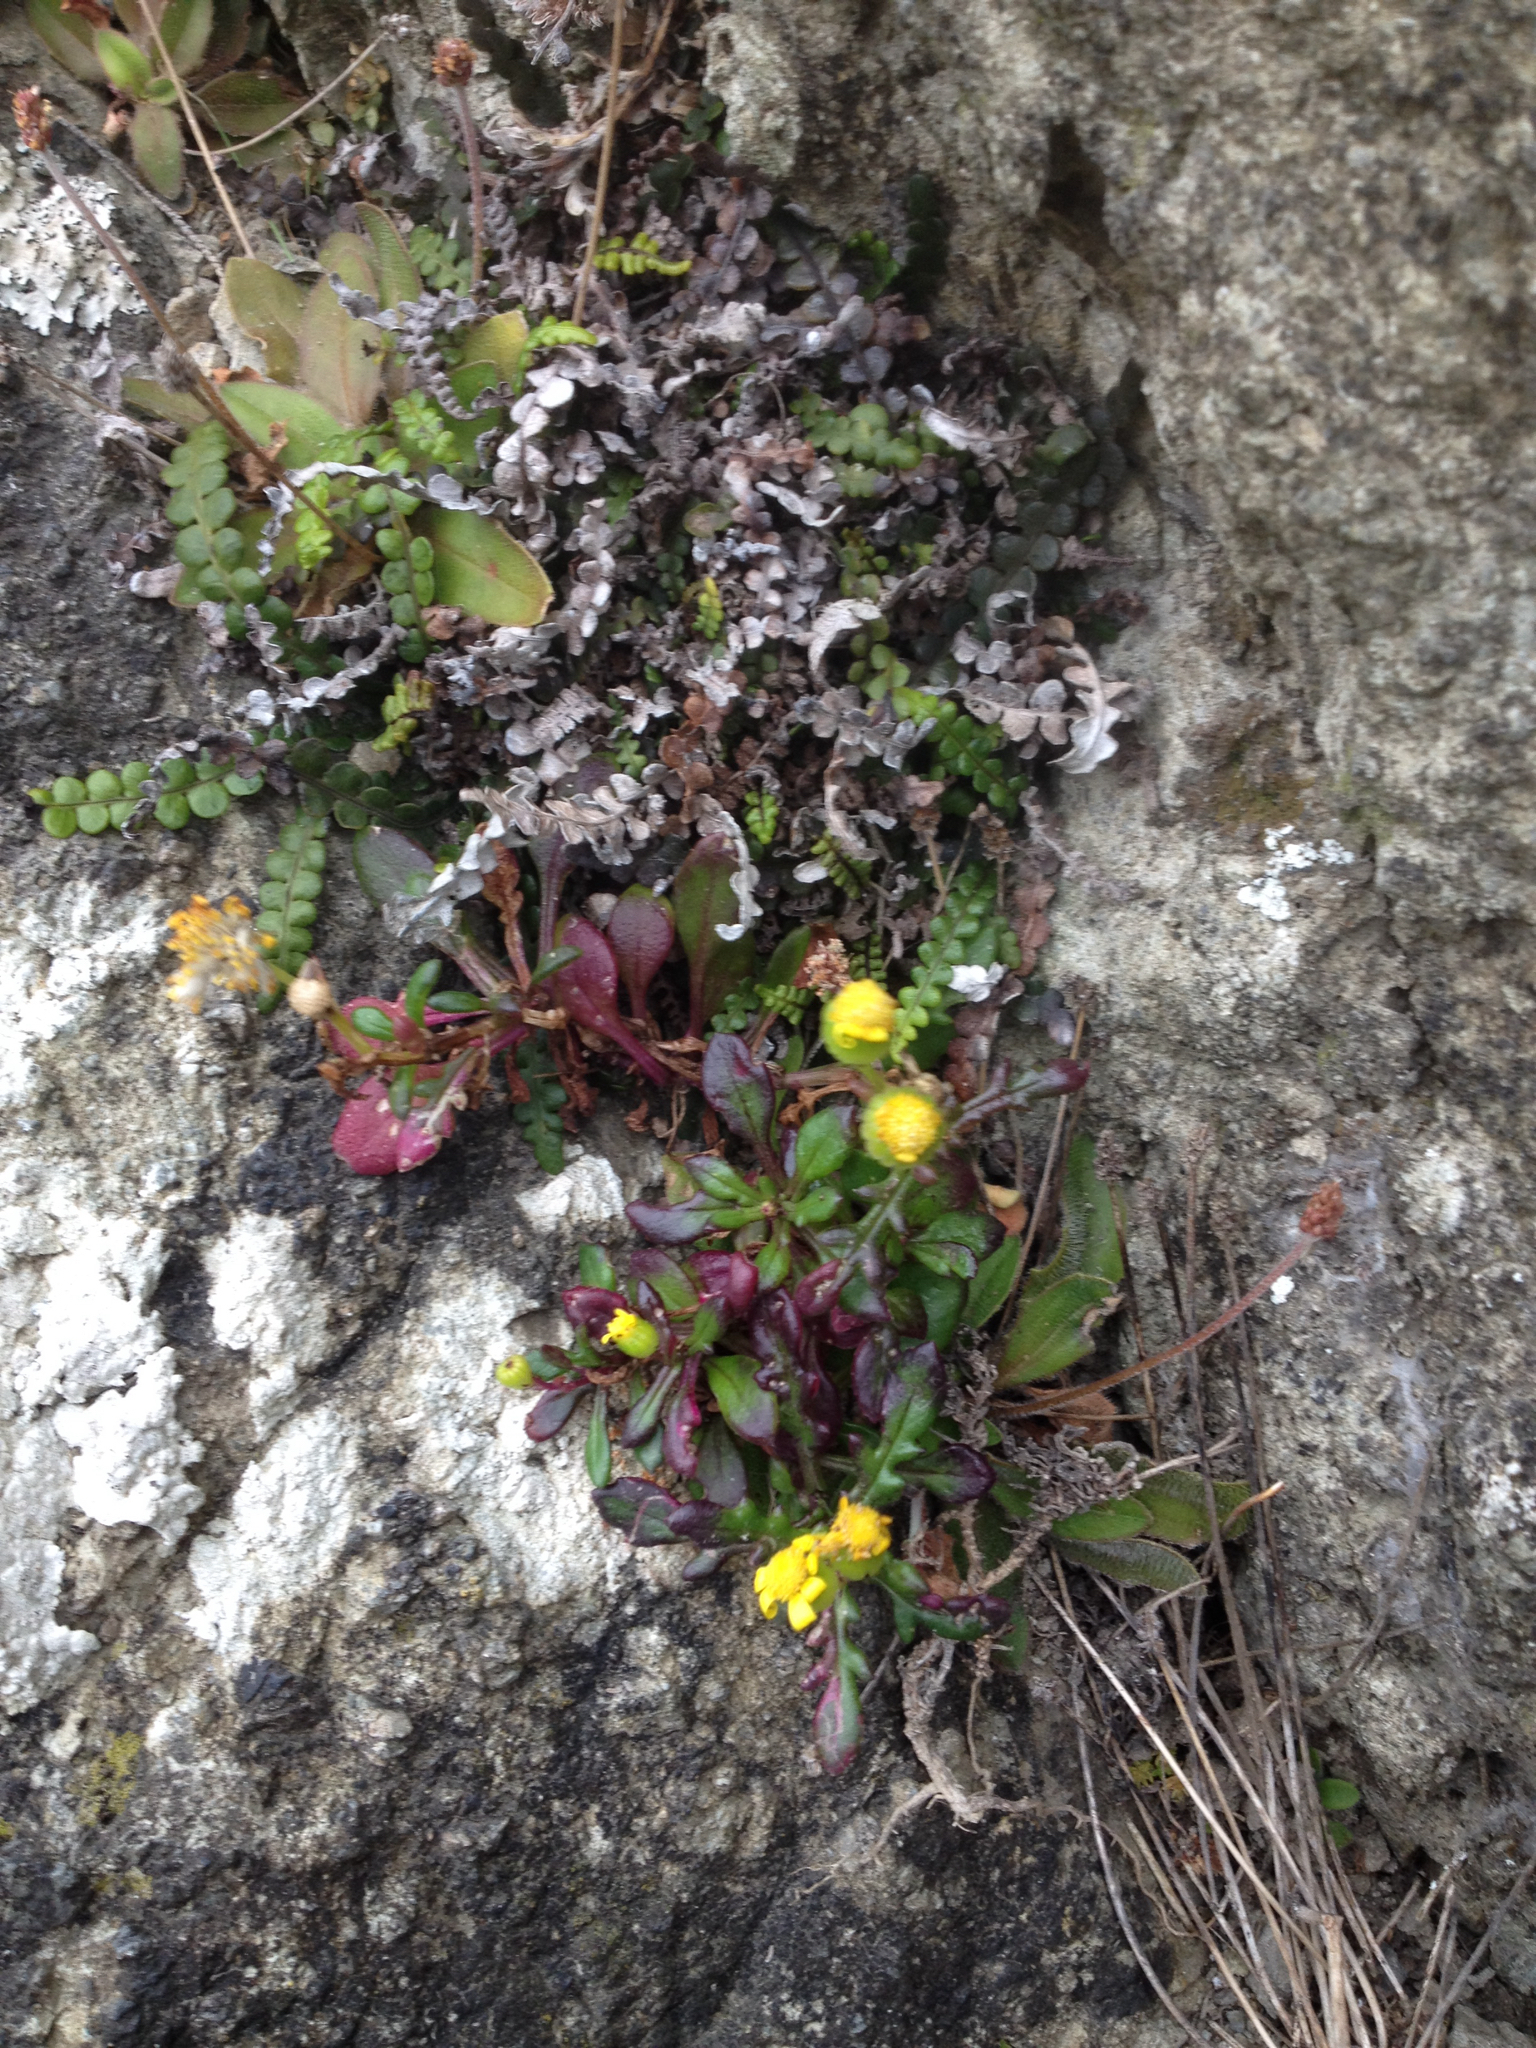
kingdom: Plantae
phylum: Tracheophyta
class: Magnoliopsida
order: Asterales
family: Asteraceae
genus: Senecio
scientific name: Senecio lautus
